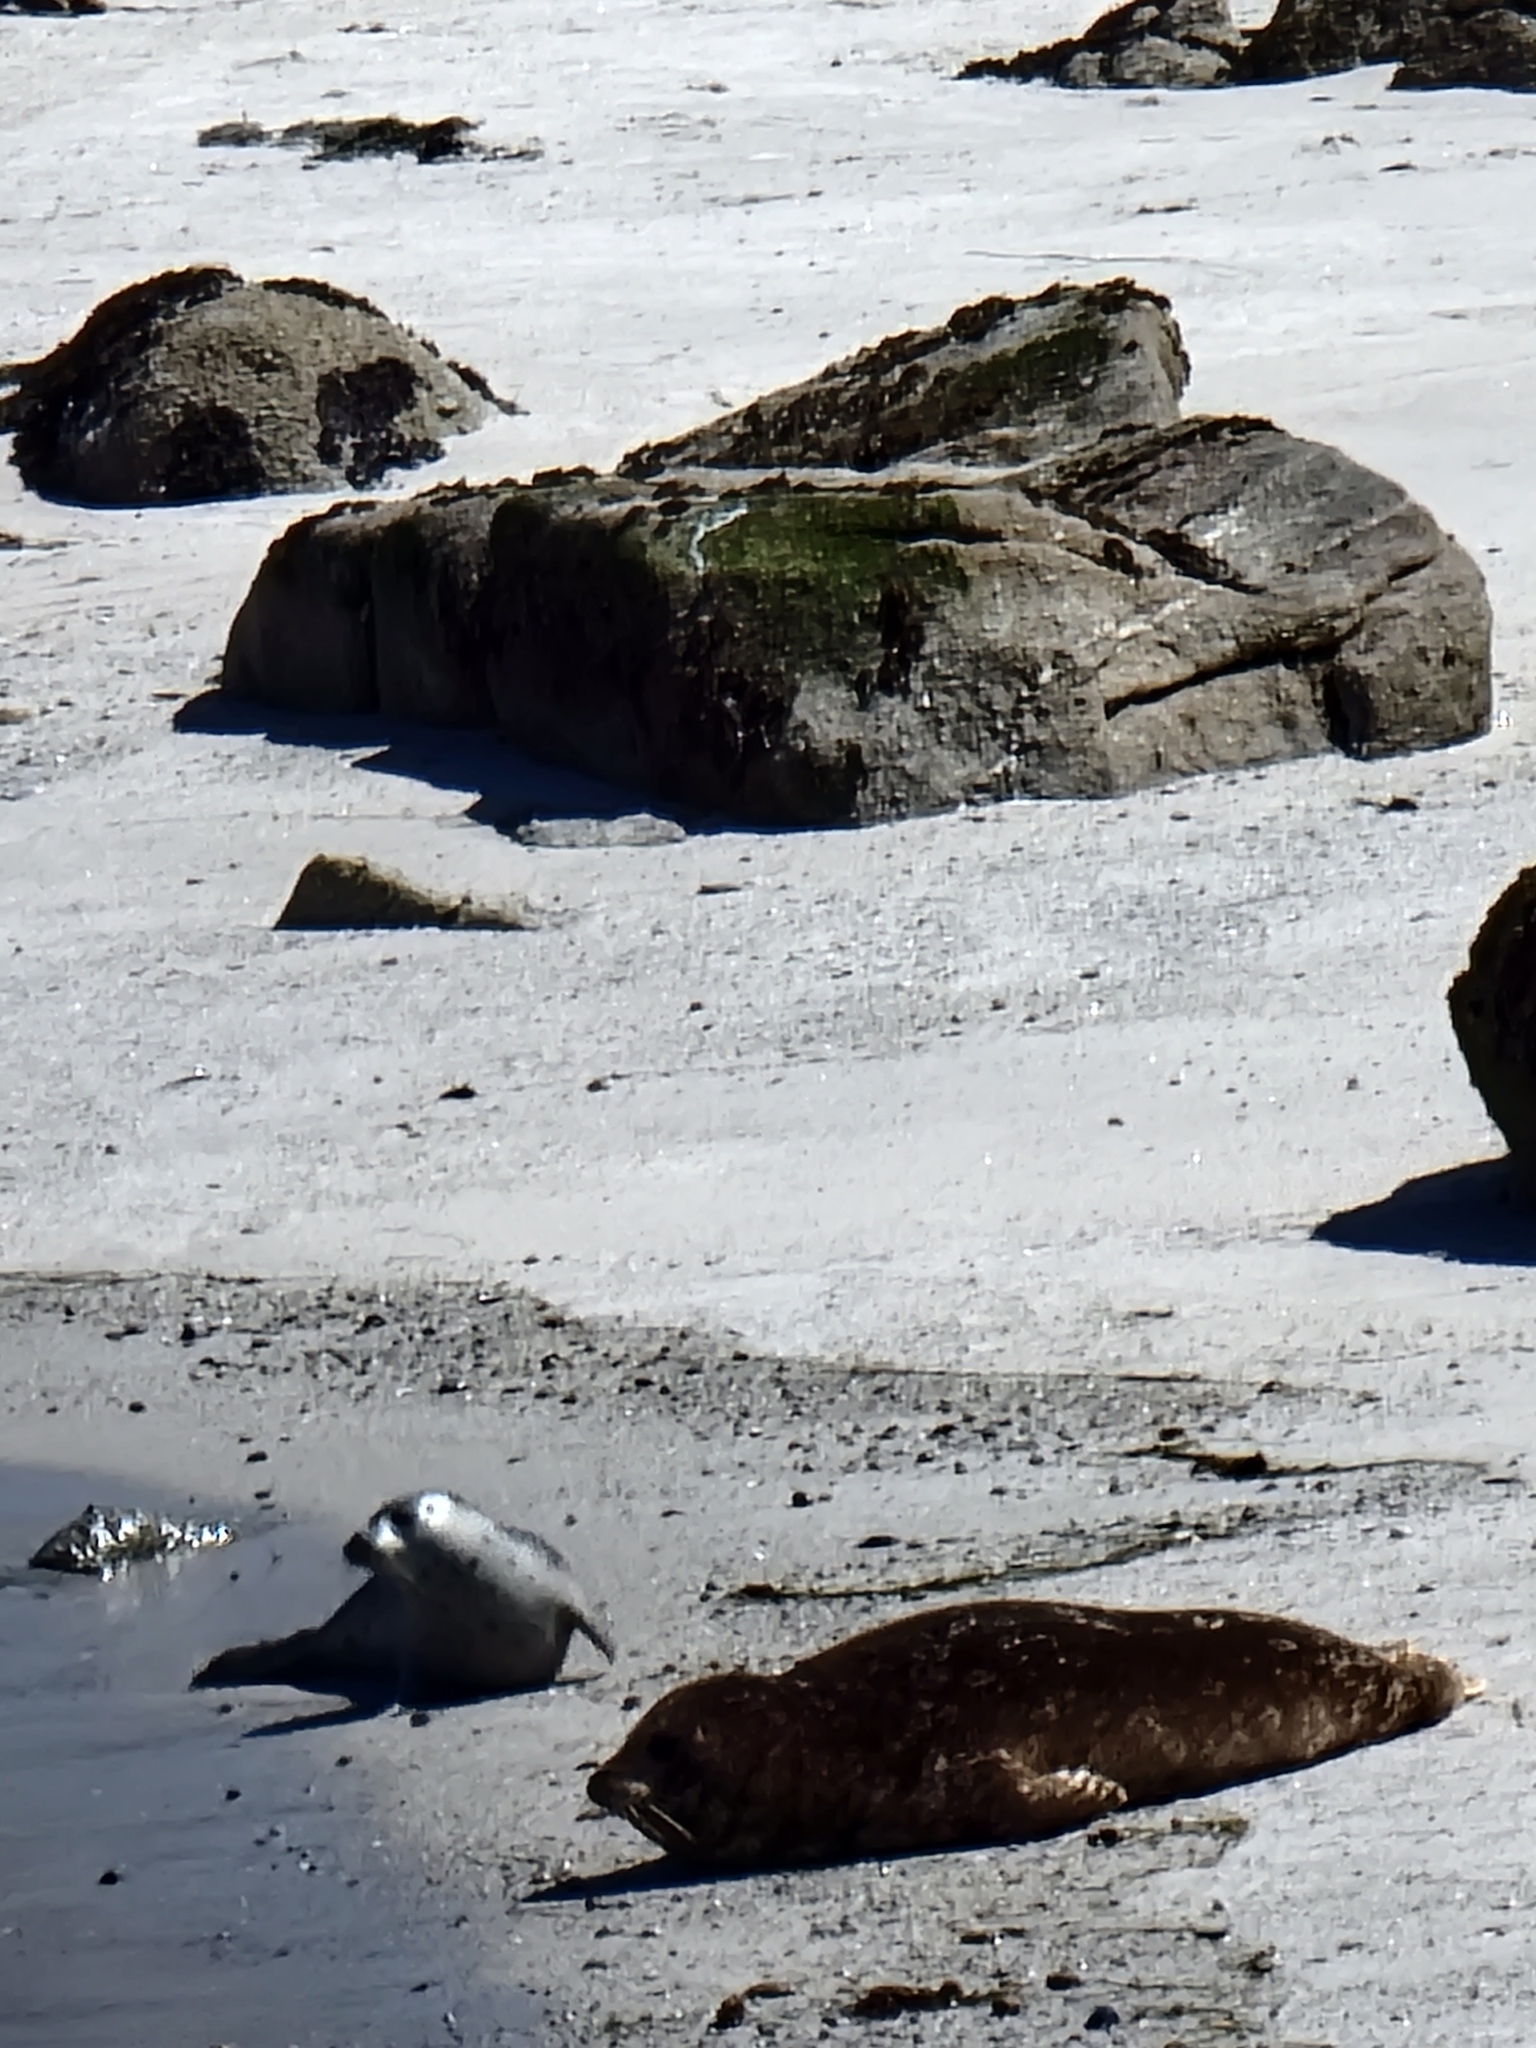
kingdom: Animalia
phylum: Chordata
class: Mammalia
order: Carnivora
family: Phocidae
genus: Phoca
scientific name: Phoca vitulina
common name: Harbor seal
